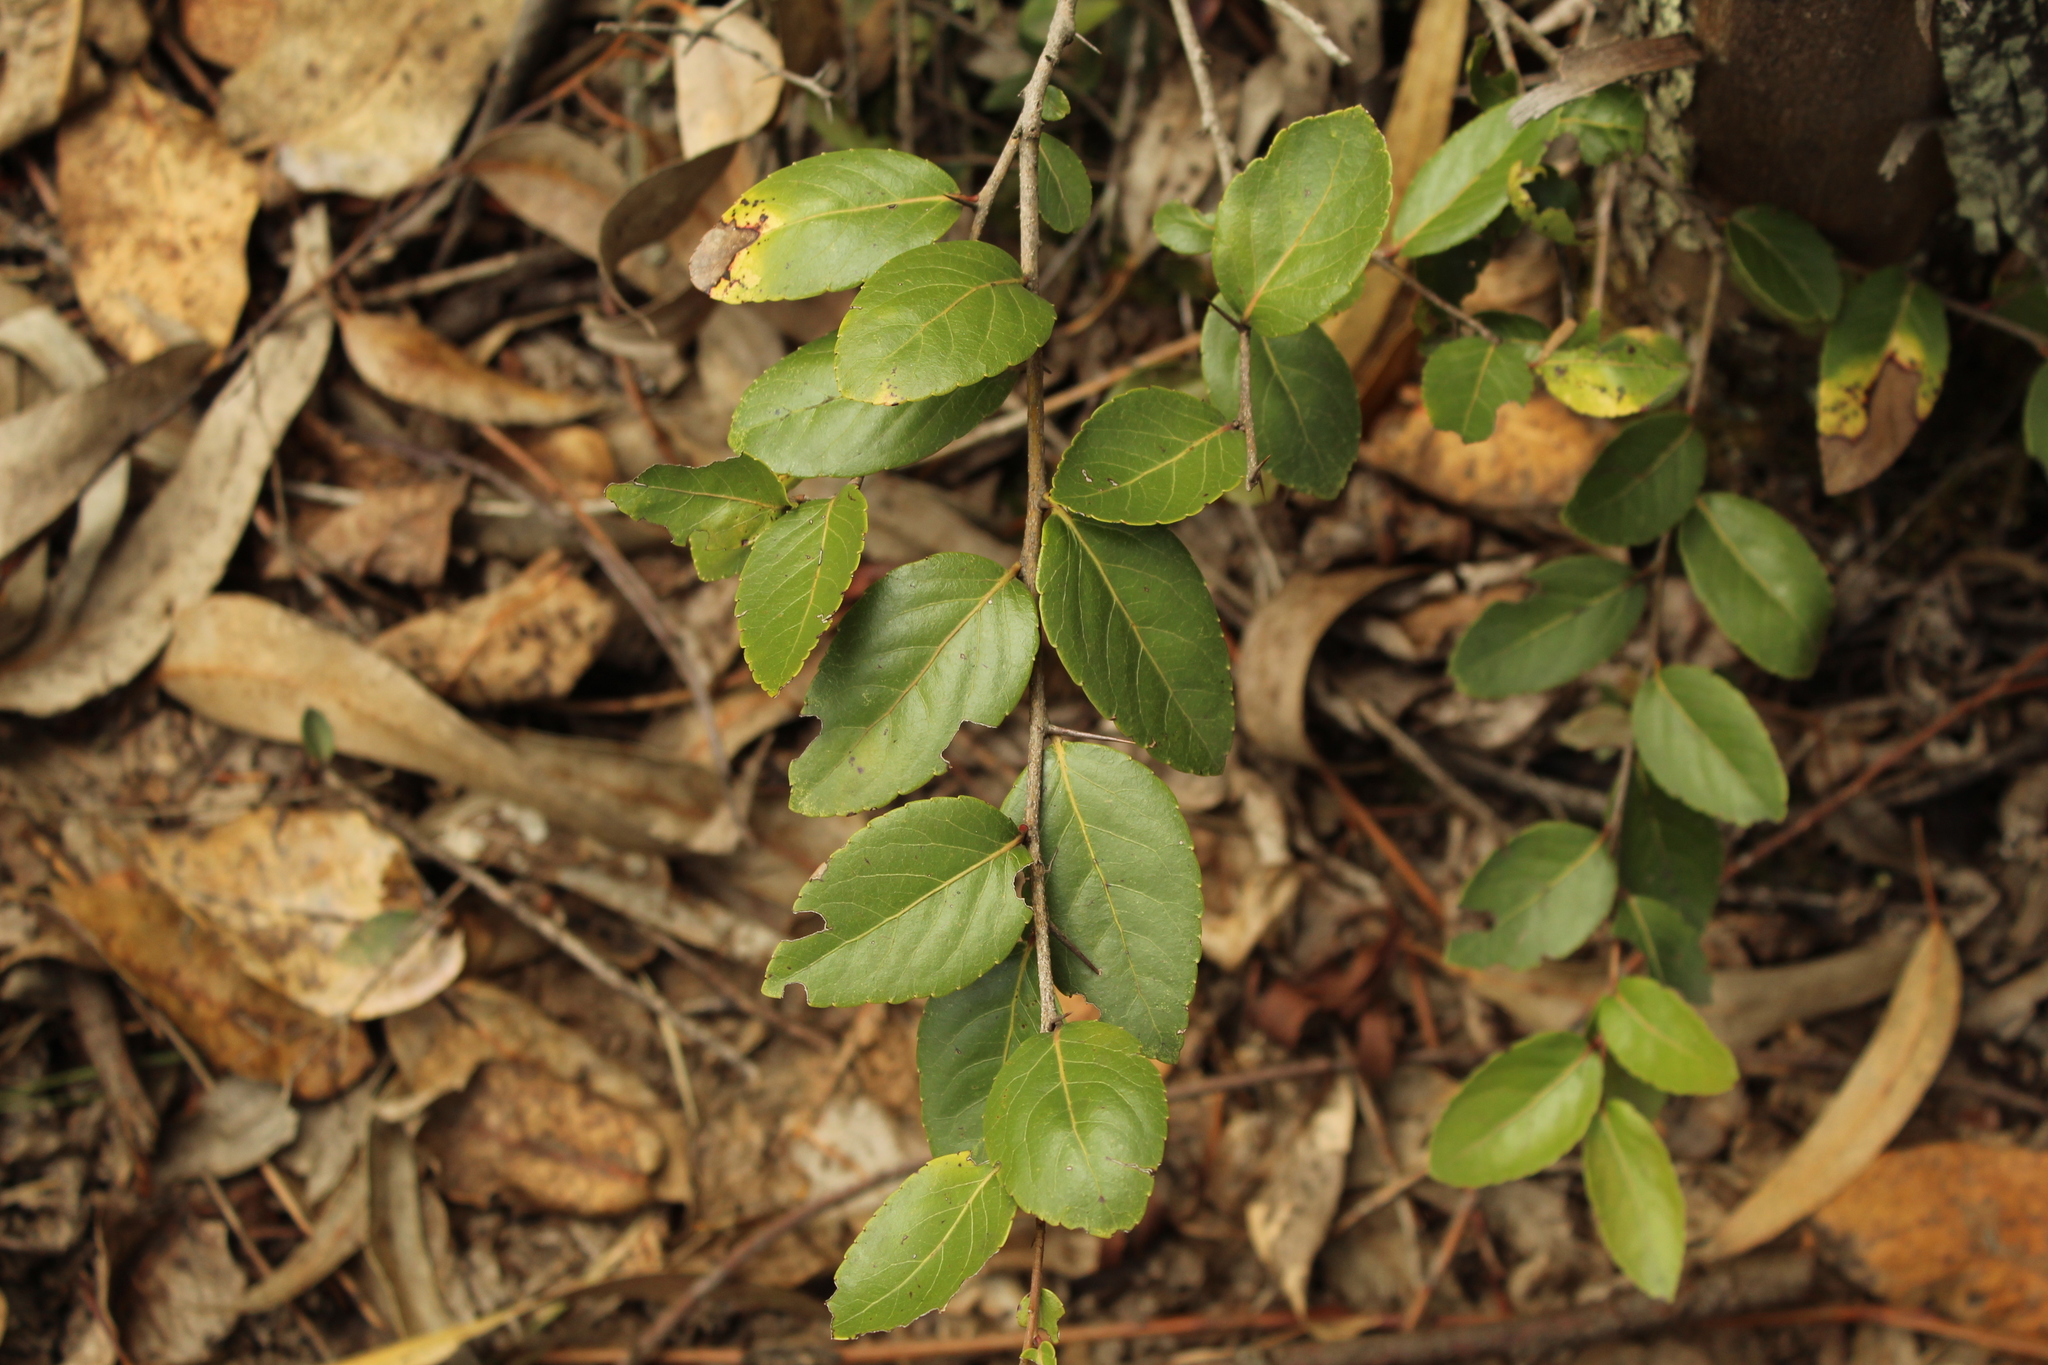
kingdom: Plantae
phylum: Tracheophyta
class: Magnoliopsida
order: Malpighiales
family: Salicaceae
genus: Xylosma
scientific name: Xylosma spiculifera
